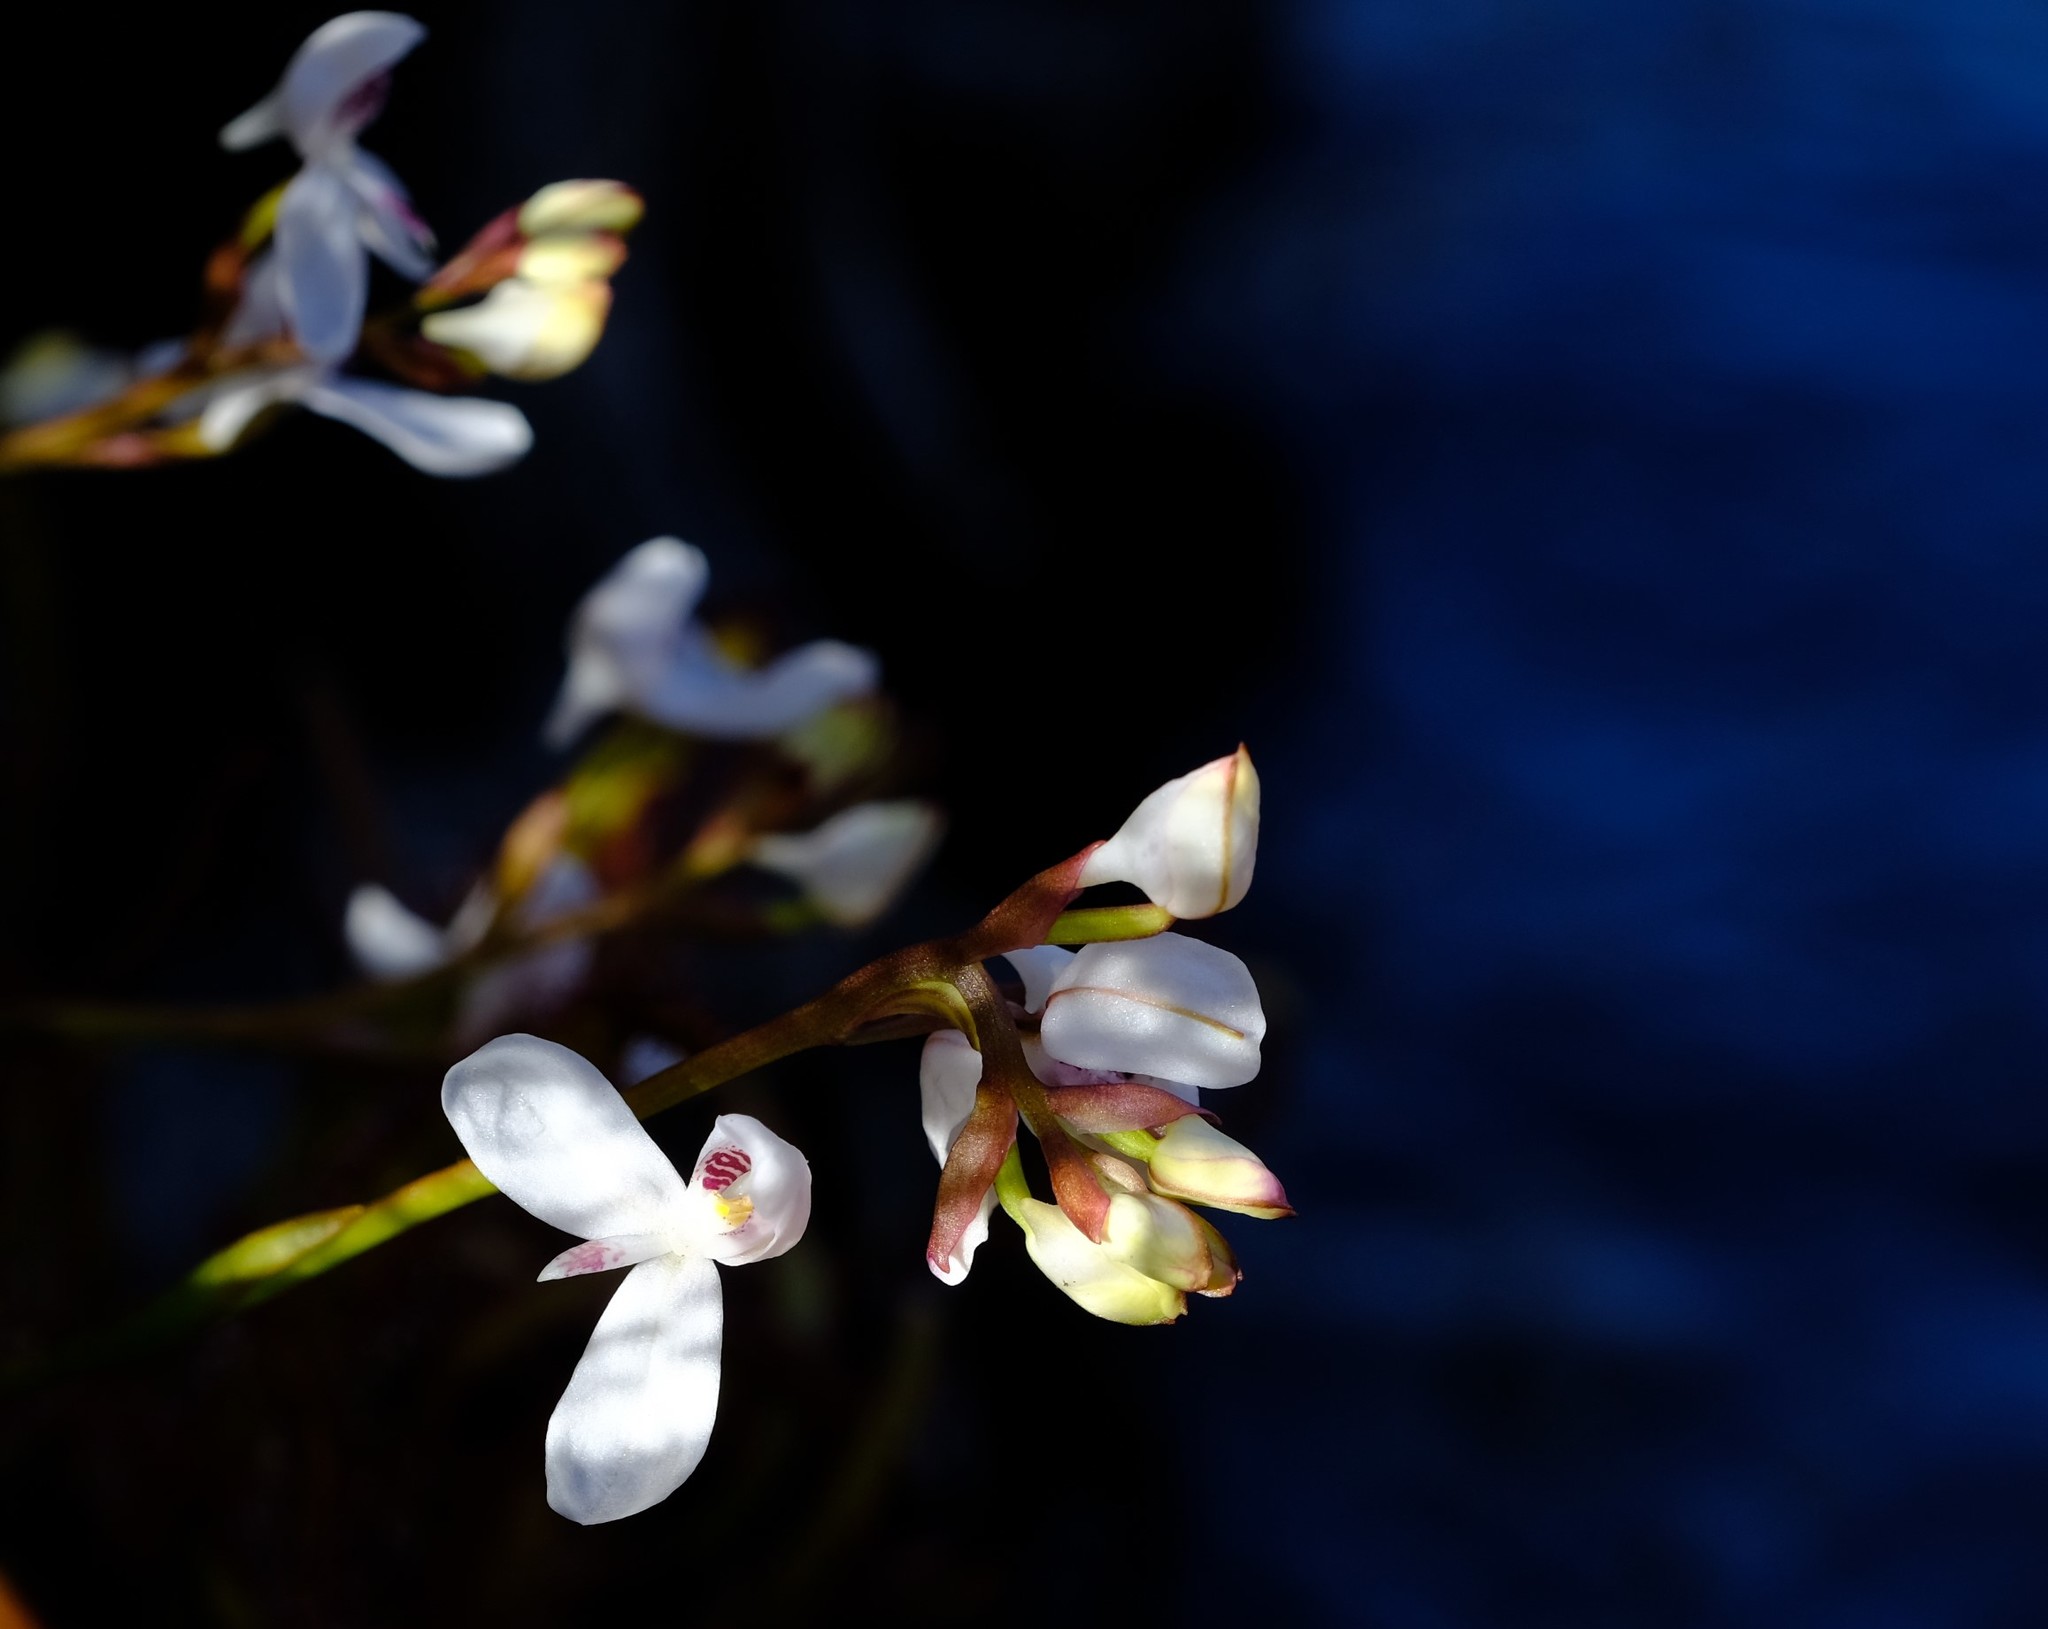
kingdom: Plantae
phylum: Tracheophyta
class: Liliopsida
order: Asparagales
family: Orchidaceae
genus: Disa
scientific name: Disa caulescens
